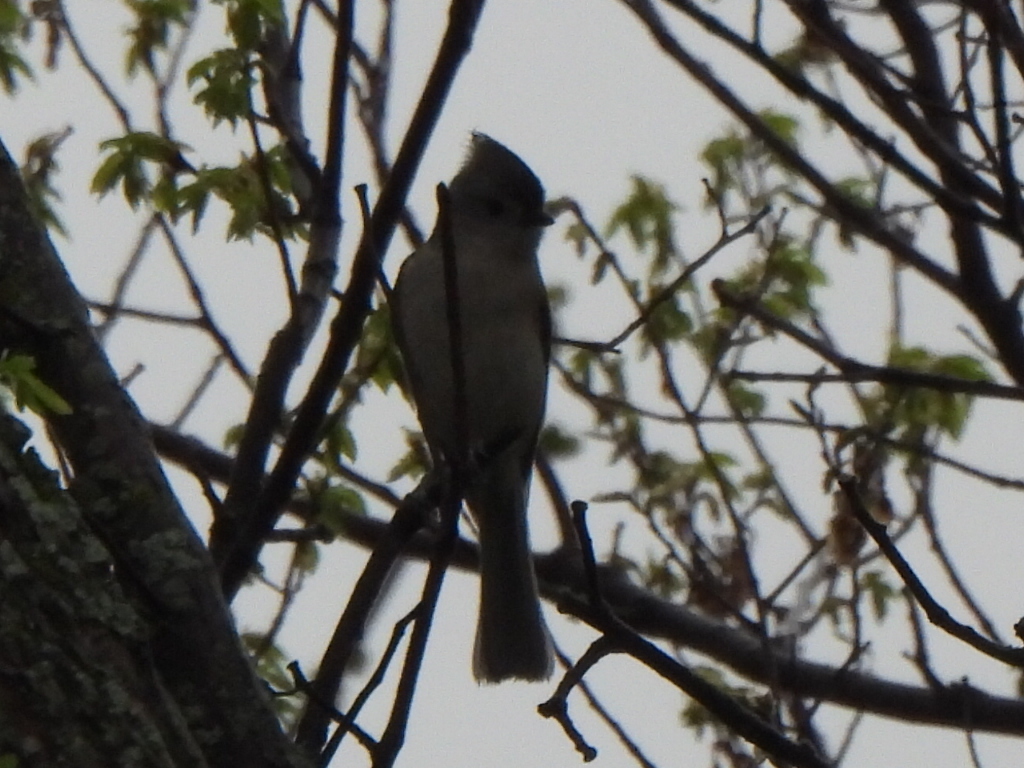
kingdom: Animalia
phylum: Chordata
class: Aves
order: Passeriformes
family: Paridae
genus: Baeolophus
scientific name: Baeolophus bicolor
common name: Tufted titmouse
